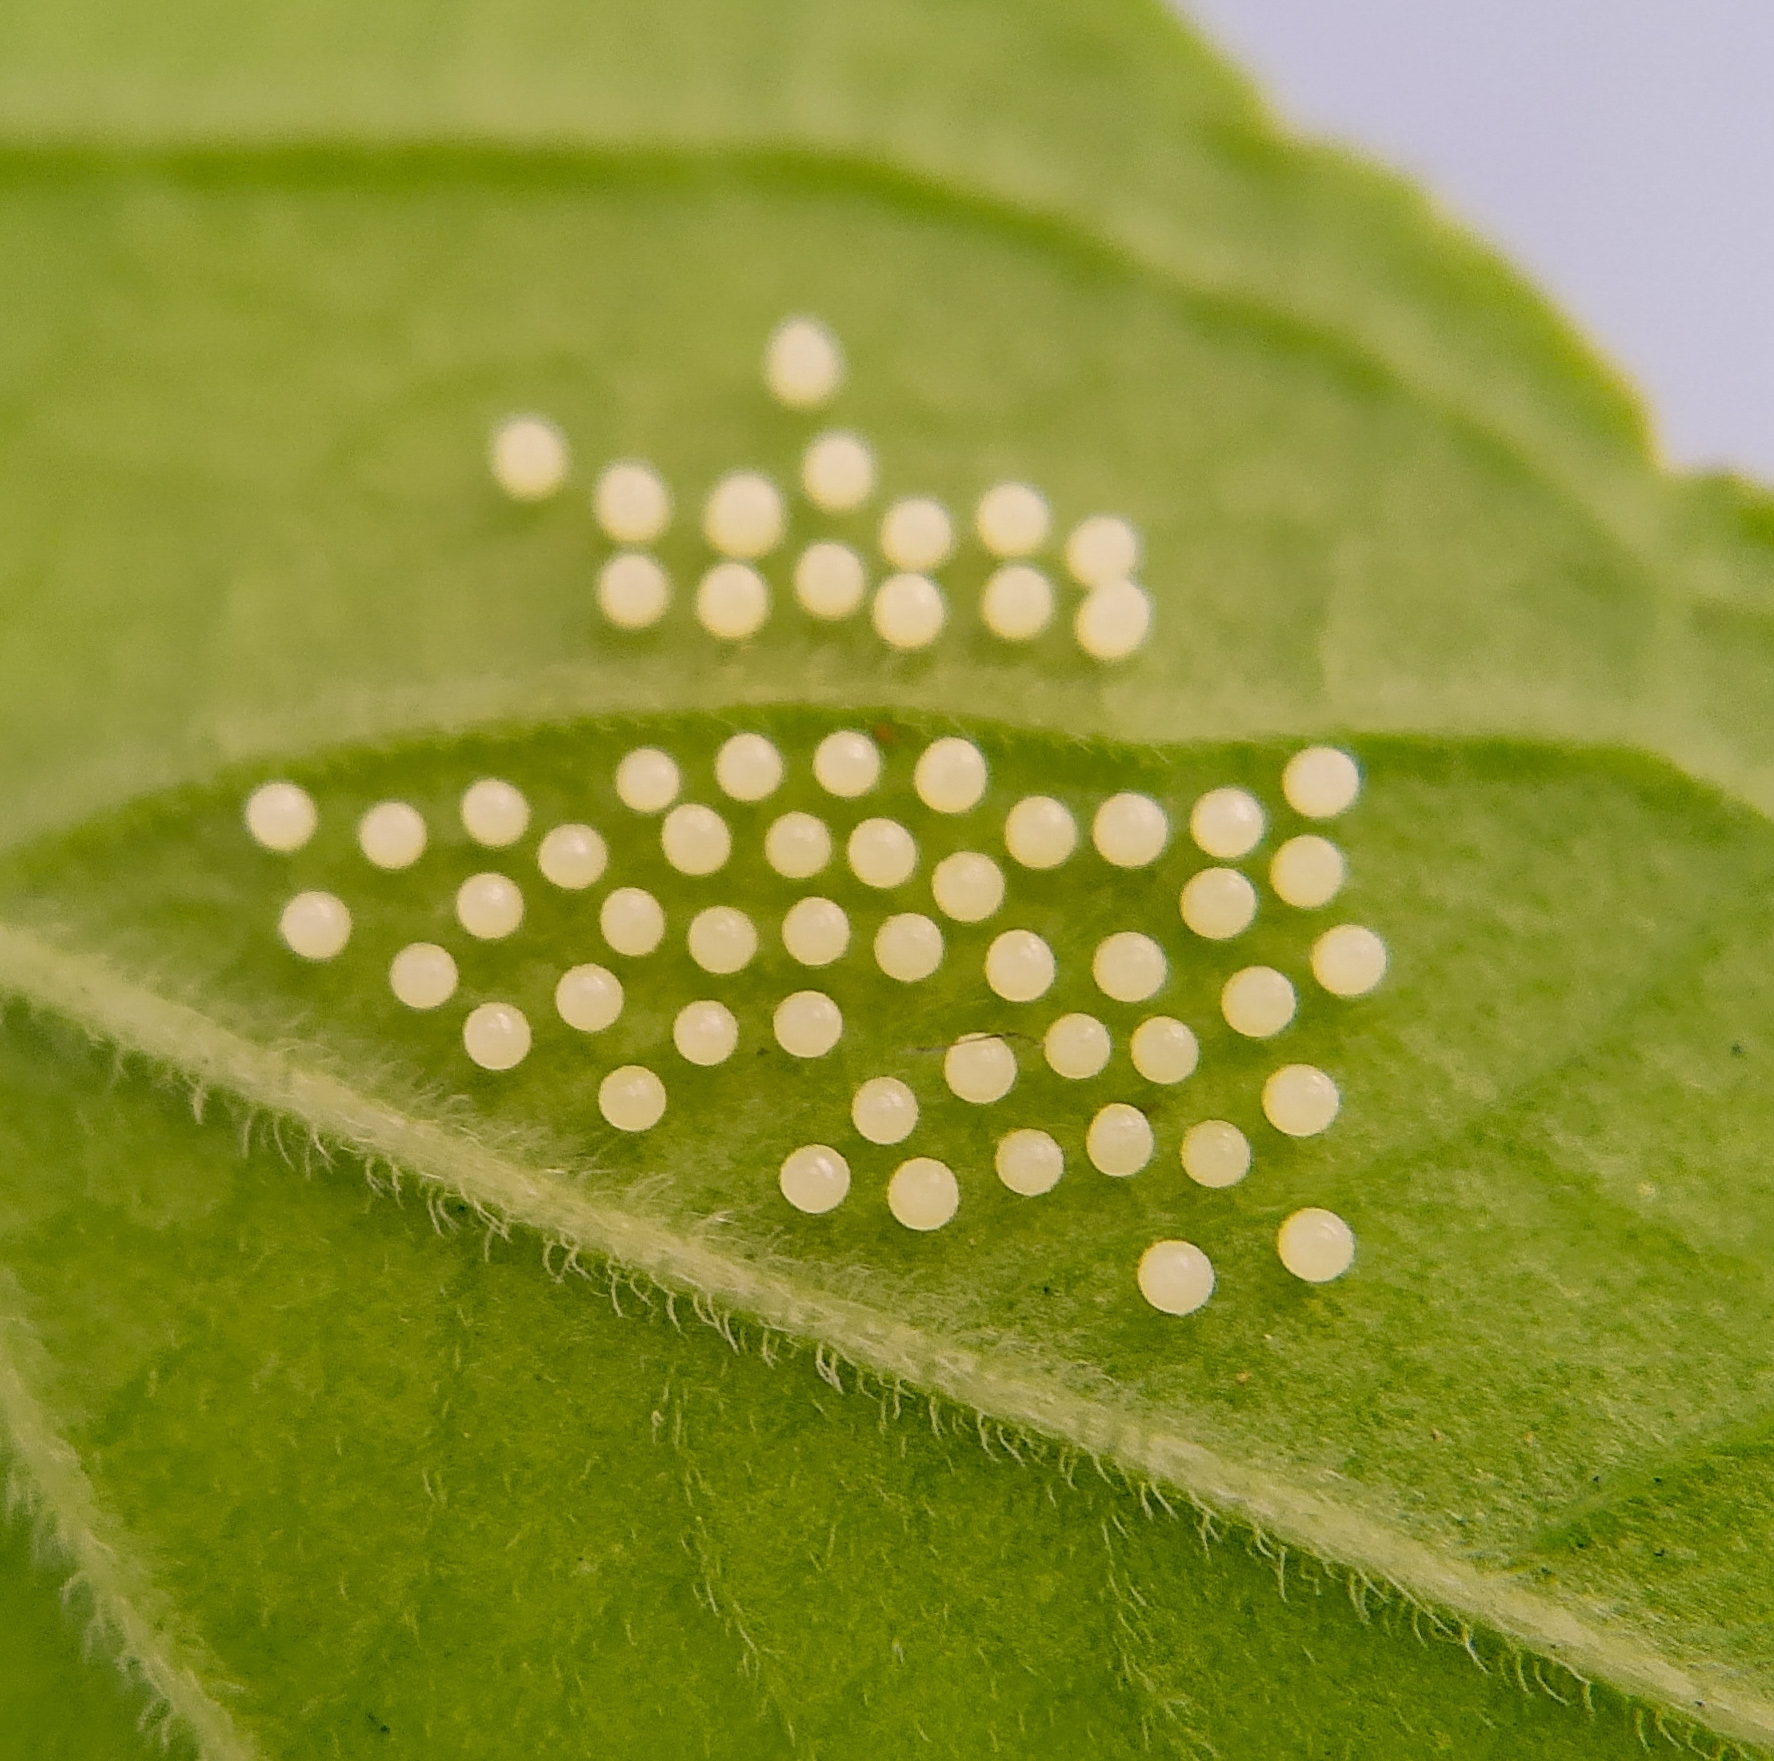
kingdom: Animalia
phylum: Arthropoda
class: Insecta
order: Lepidoptera
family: Nymphalidae
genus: Eresia
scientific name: Eresia lansdorfi
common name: Lansdorf's crescent
